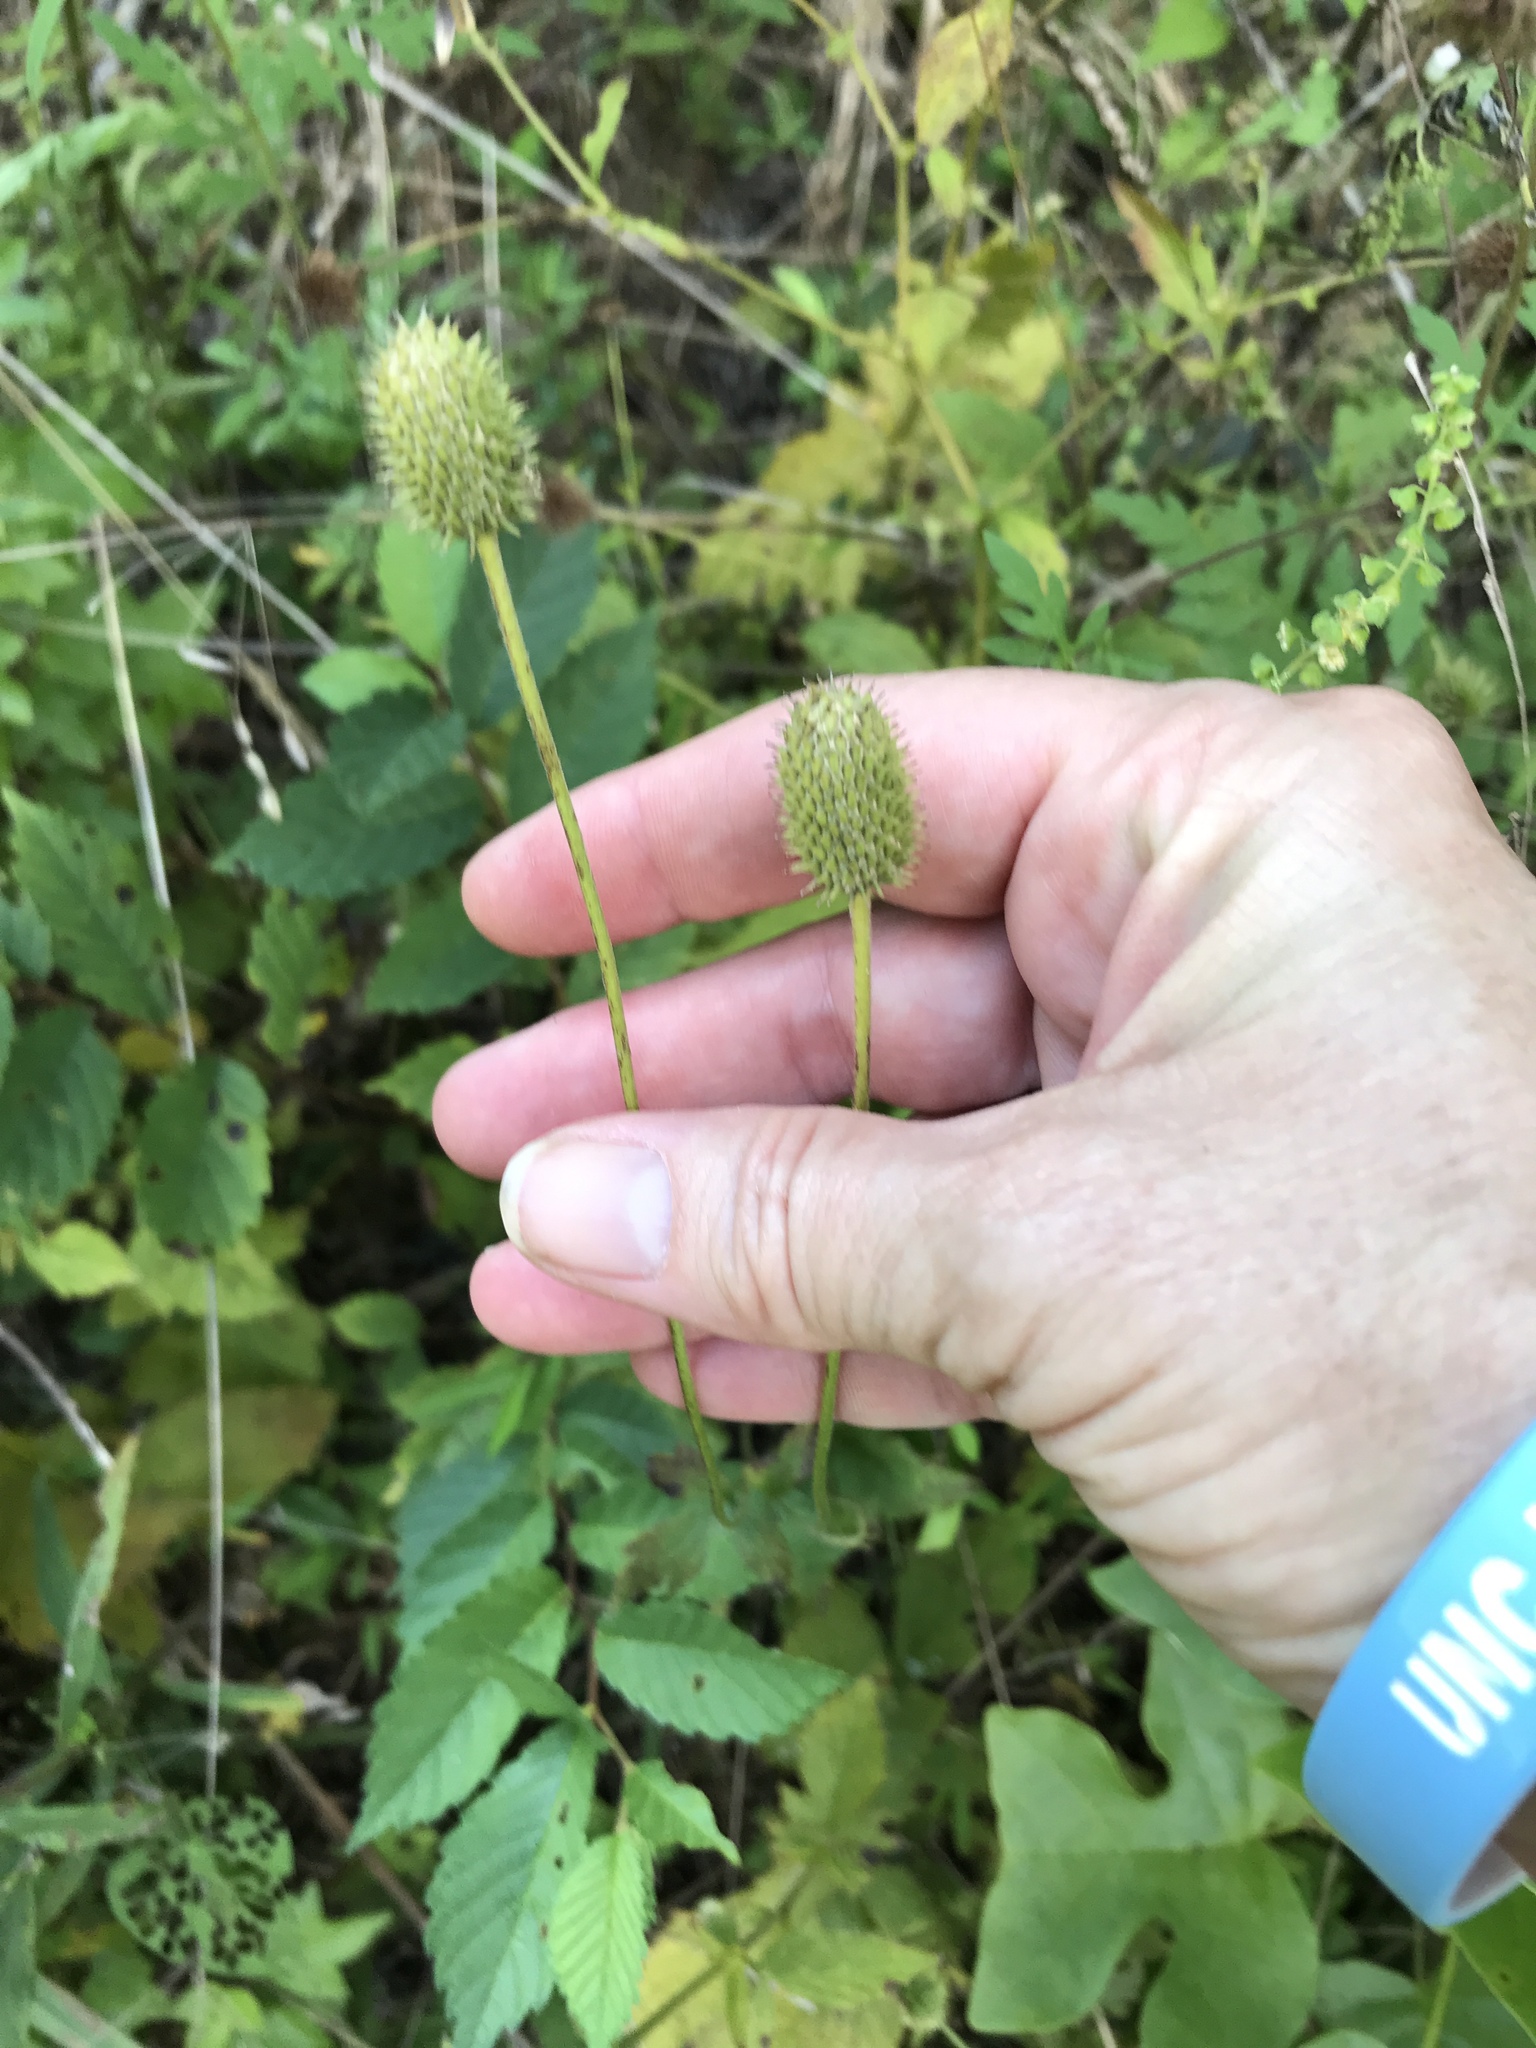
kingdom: Plantae
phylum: Tracheophyta
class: Magnoliopsida
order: Ranunculales
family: Ranunculaceae
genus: Anemone
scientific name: Anemone virginiana
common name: Tall anemone
